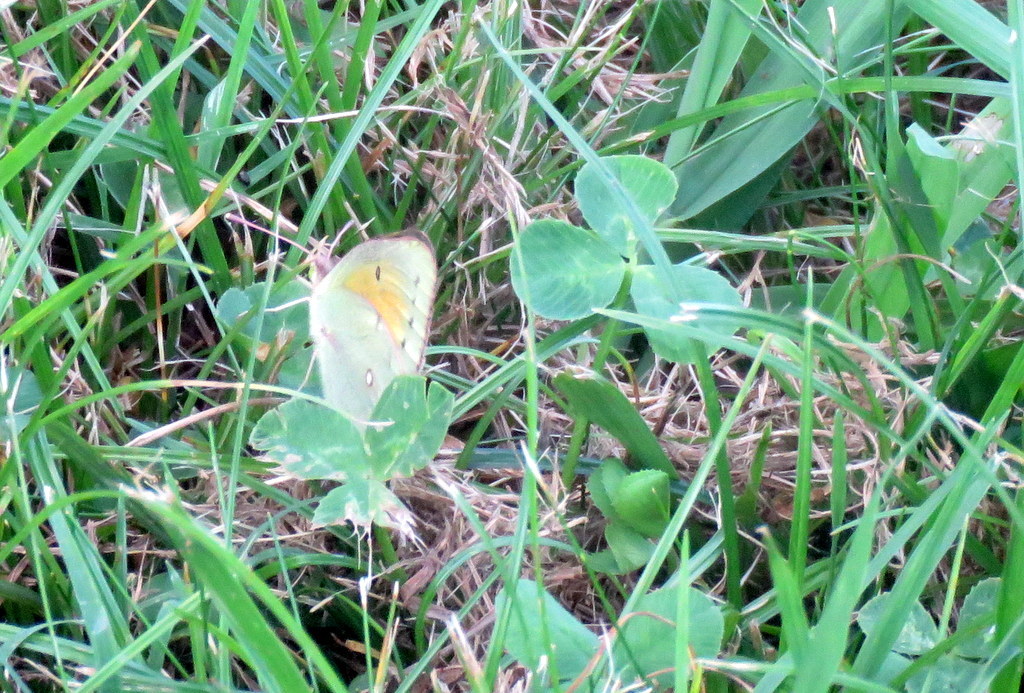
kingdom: Animalia
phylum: Arthropoda
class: Insecta
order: Lepidoptera
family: Pieridae
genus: Colias
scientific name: Colias lesbia
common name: Lesbia clouded yellow
